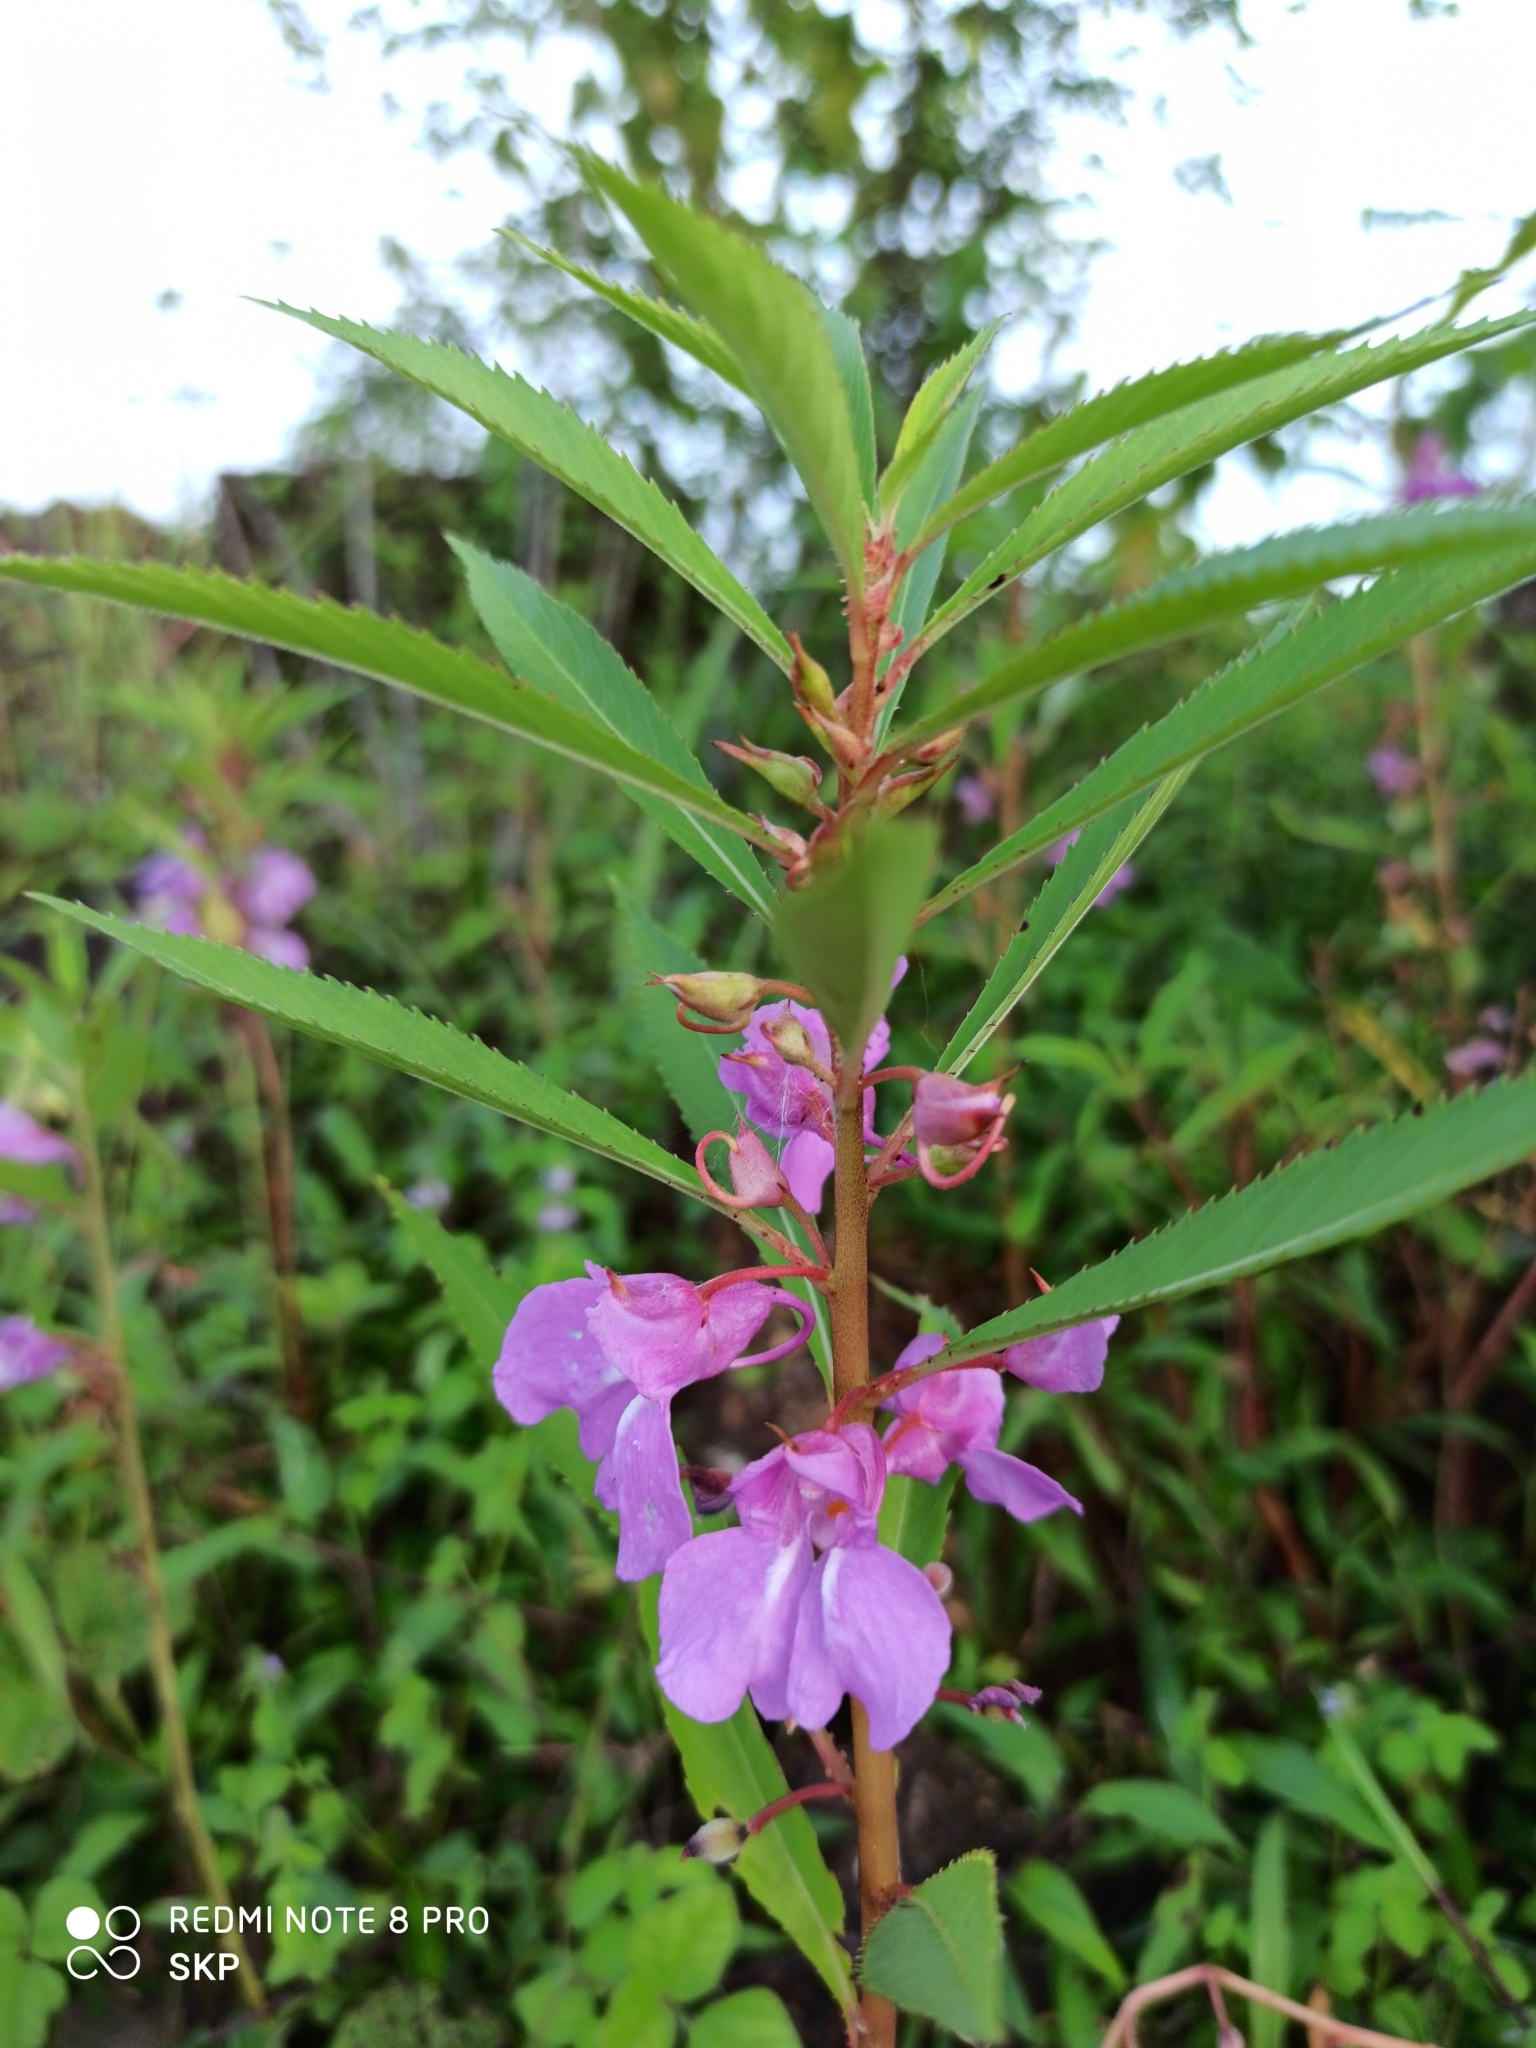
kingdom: Plantae
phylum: Tracheophyta
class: Magnoliopsida
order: Ericales
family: Balsaminaceae
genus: Impatiens
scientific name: Impatiens balsamina
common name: Balsam
